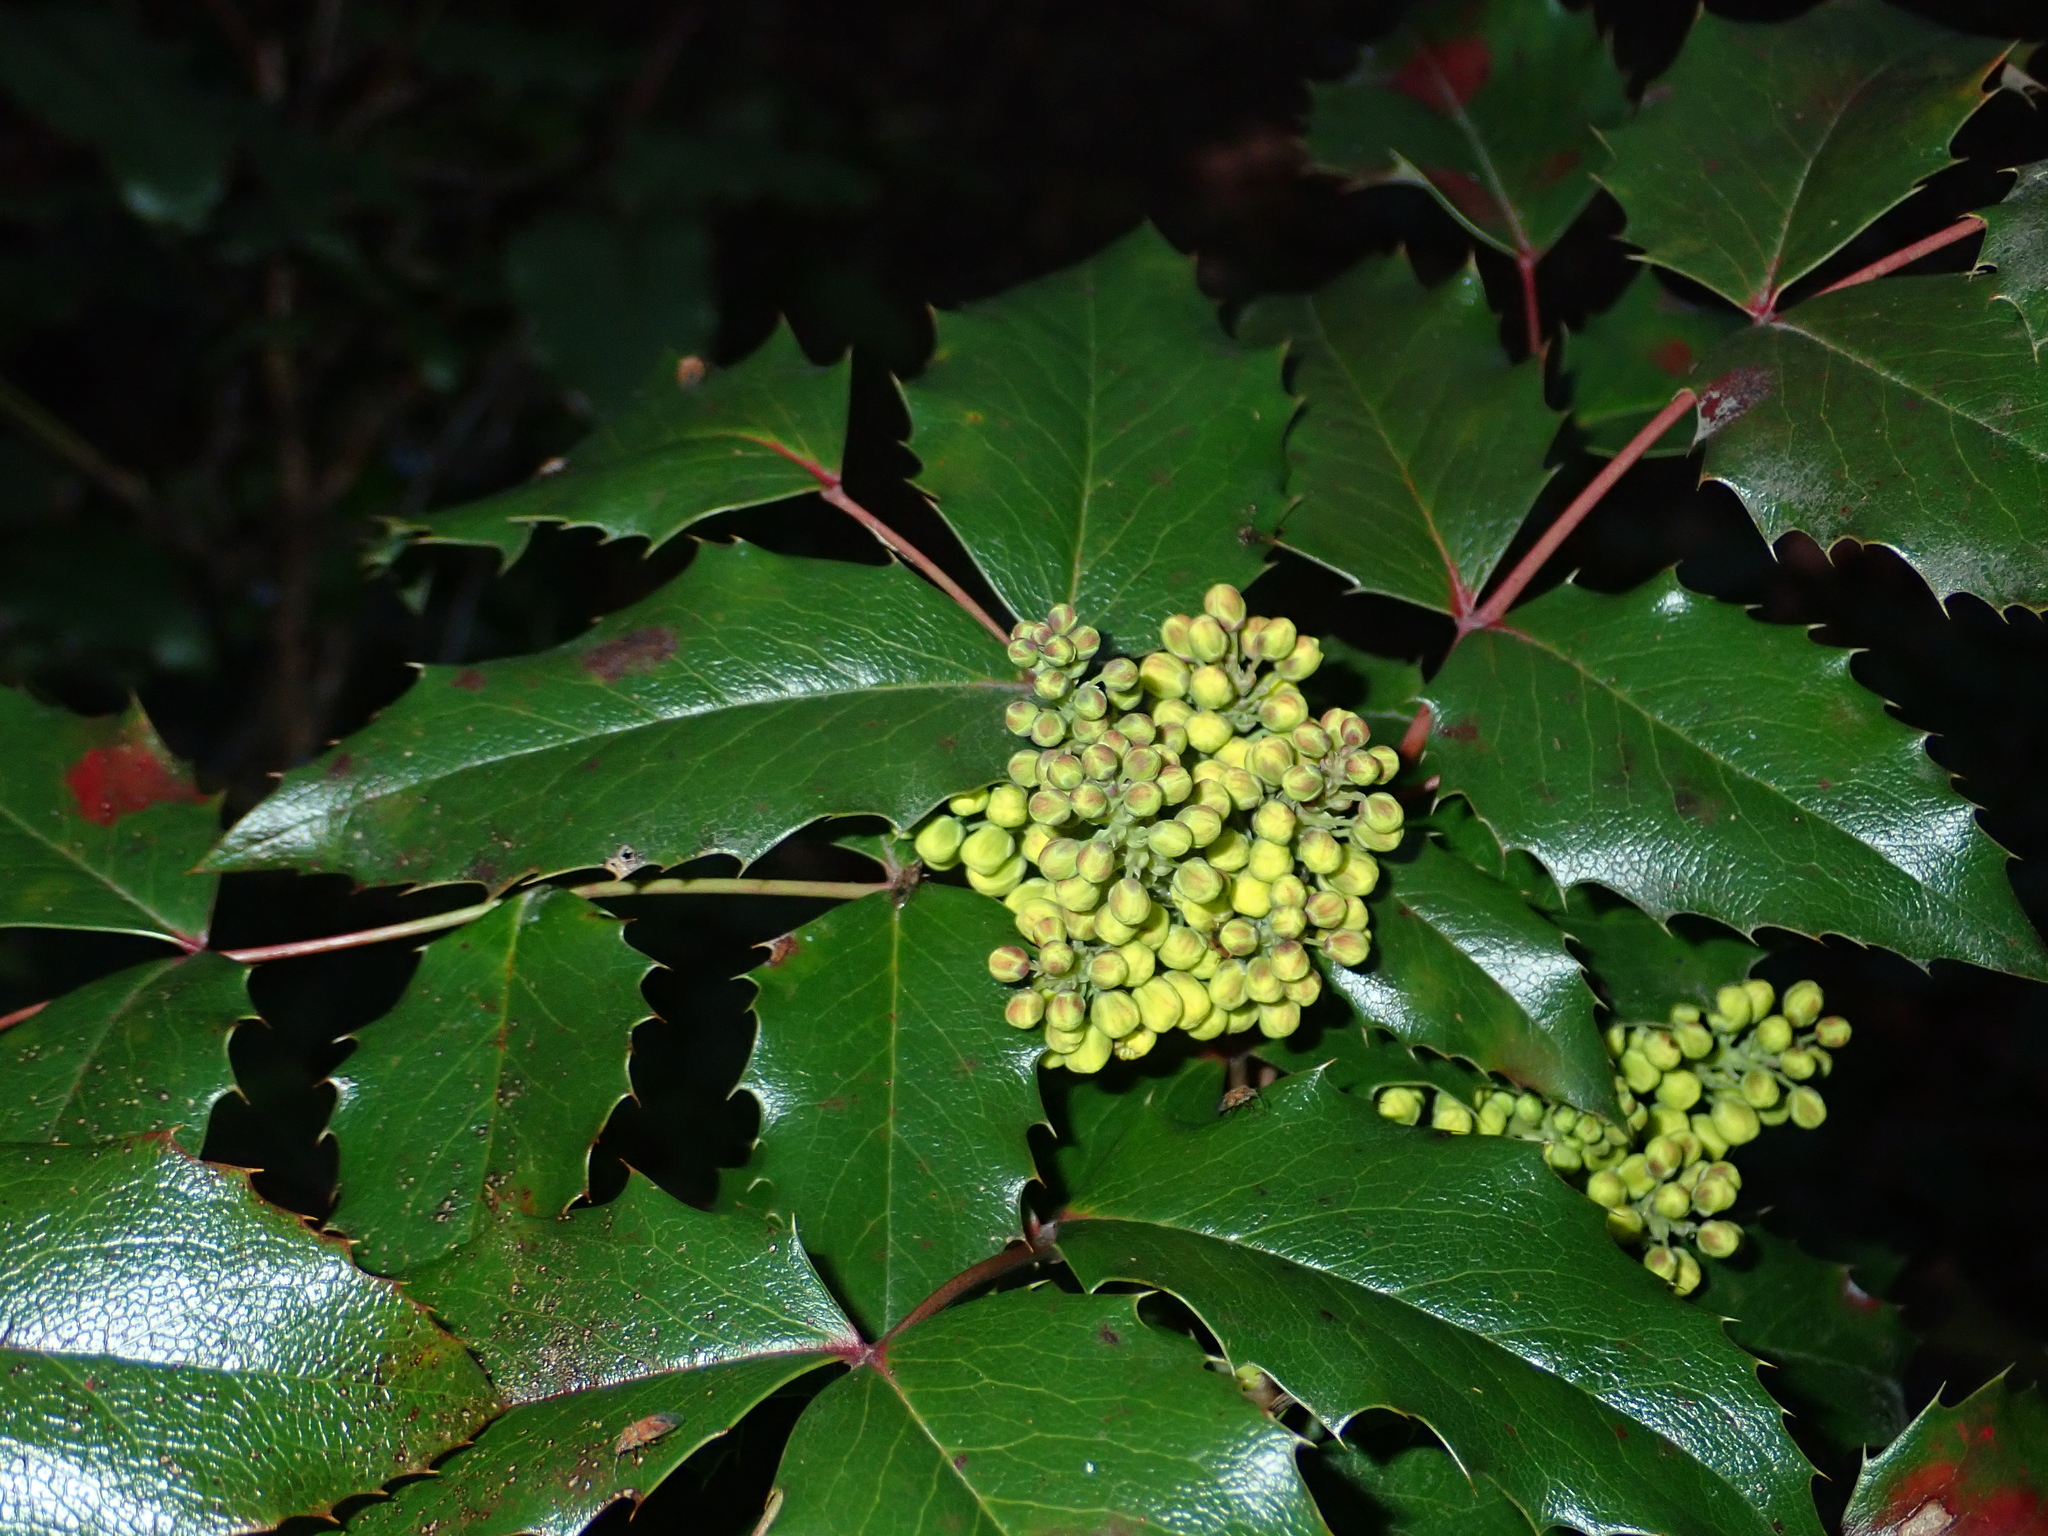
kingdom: Plantae
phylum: Tracheophyta
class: Magnoliopsida
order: Ranunculales
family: Berberidaceae
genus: Mahonia
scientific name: Mahonia aquifolium
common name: Oregon-grape
